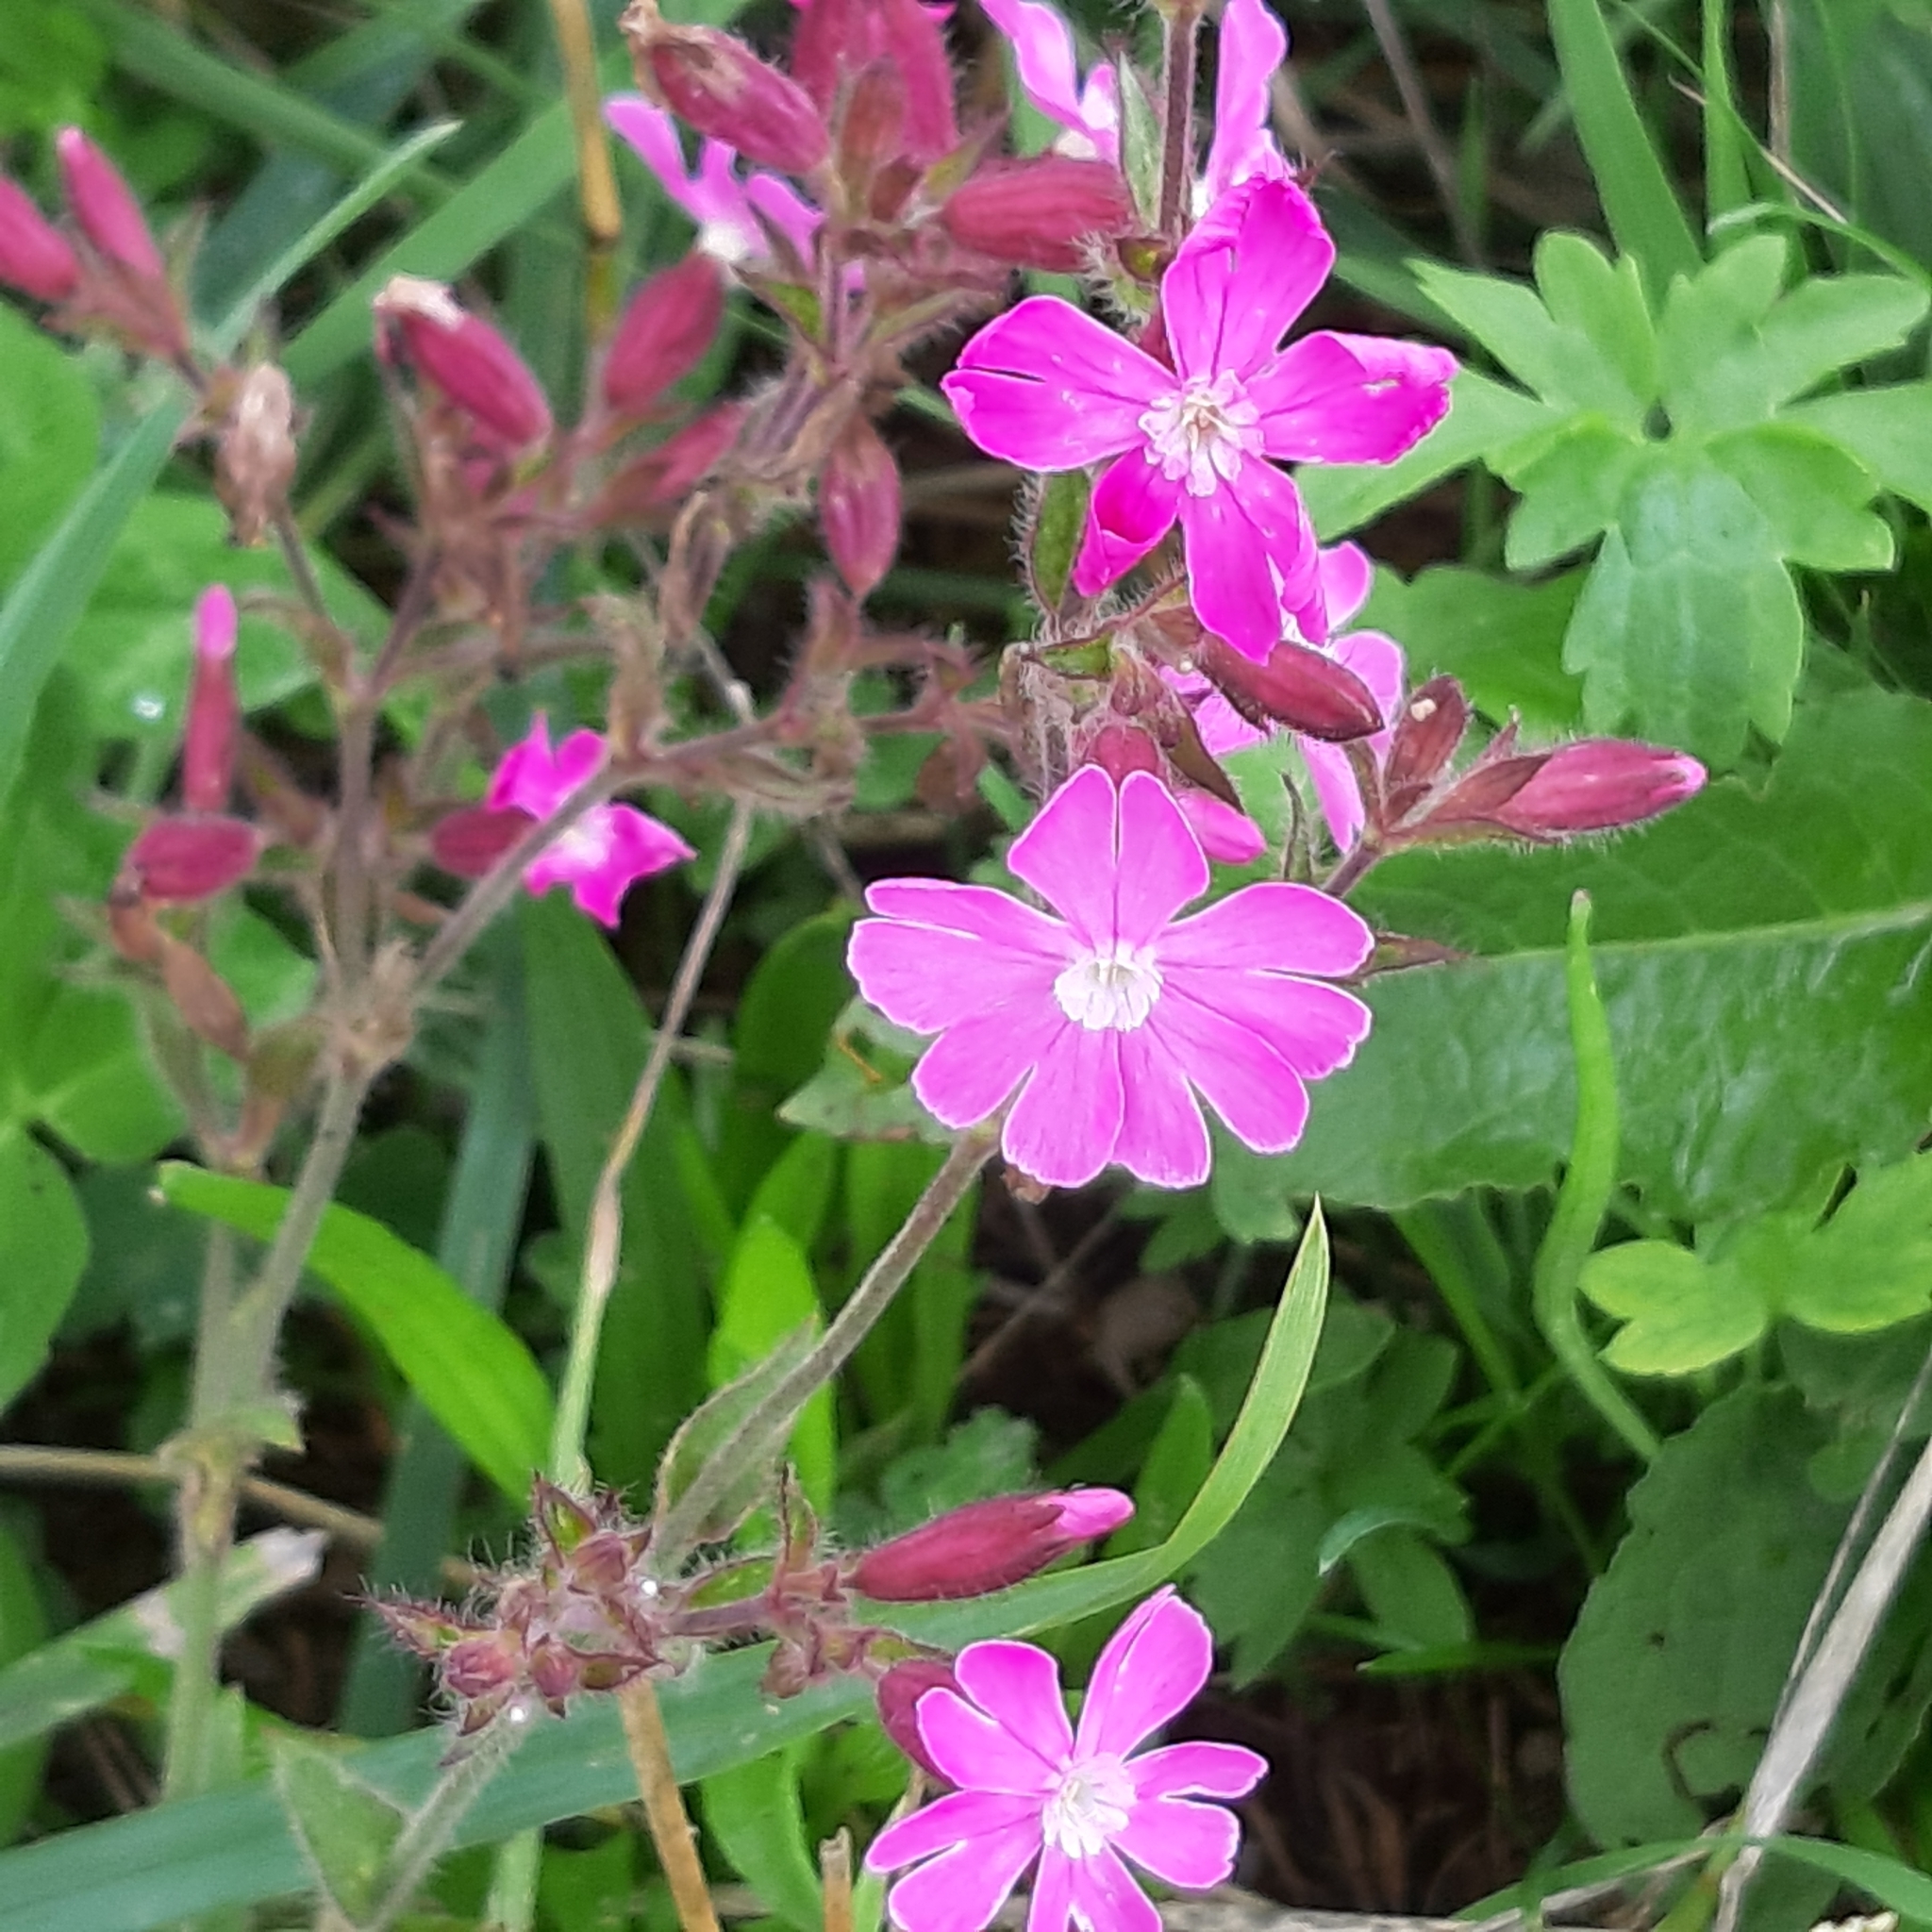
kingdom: Plantae
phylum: Tracheophyta
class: Magnoliopsida
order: Caryophyllales
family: Caryophyllaceae
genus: Silene
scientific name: Silene dioica
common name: Red campion
